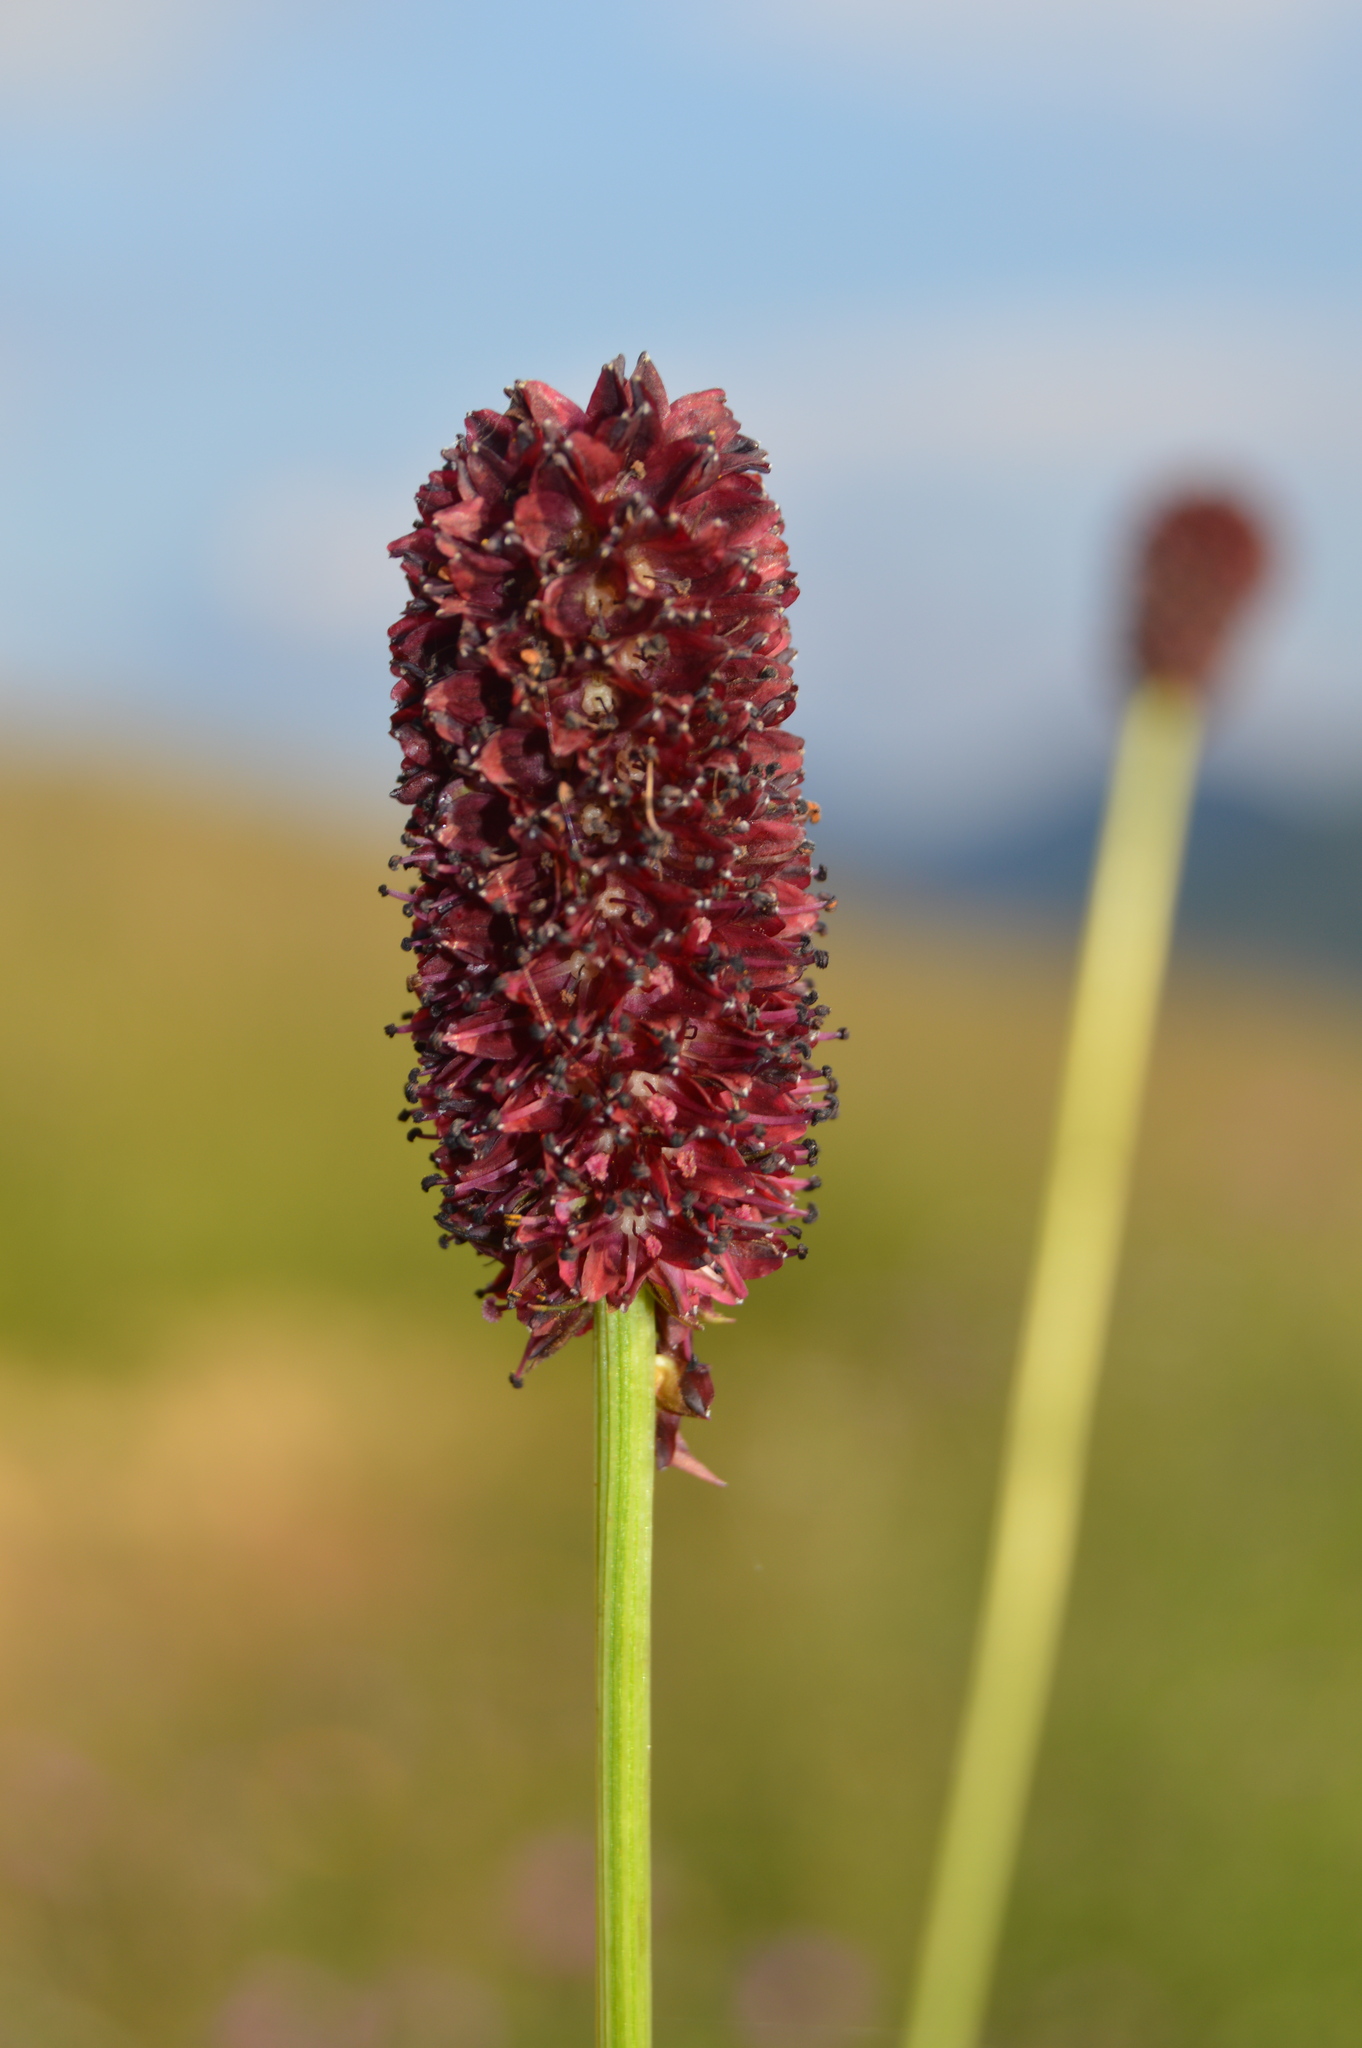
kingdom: Plantae
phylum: Tracheophyta
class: Magnoliopsida
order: Rosales
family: Rosaceae
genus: Sanguisorba
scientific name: Sanguisorba officinalis
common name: Great burnet
